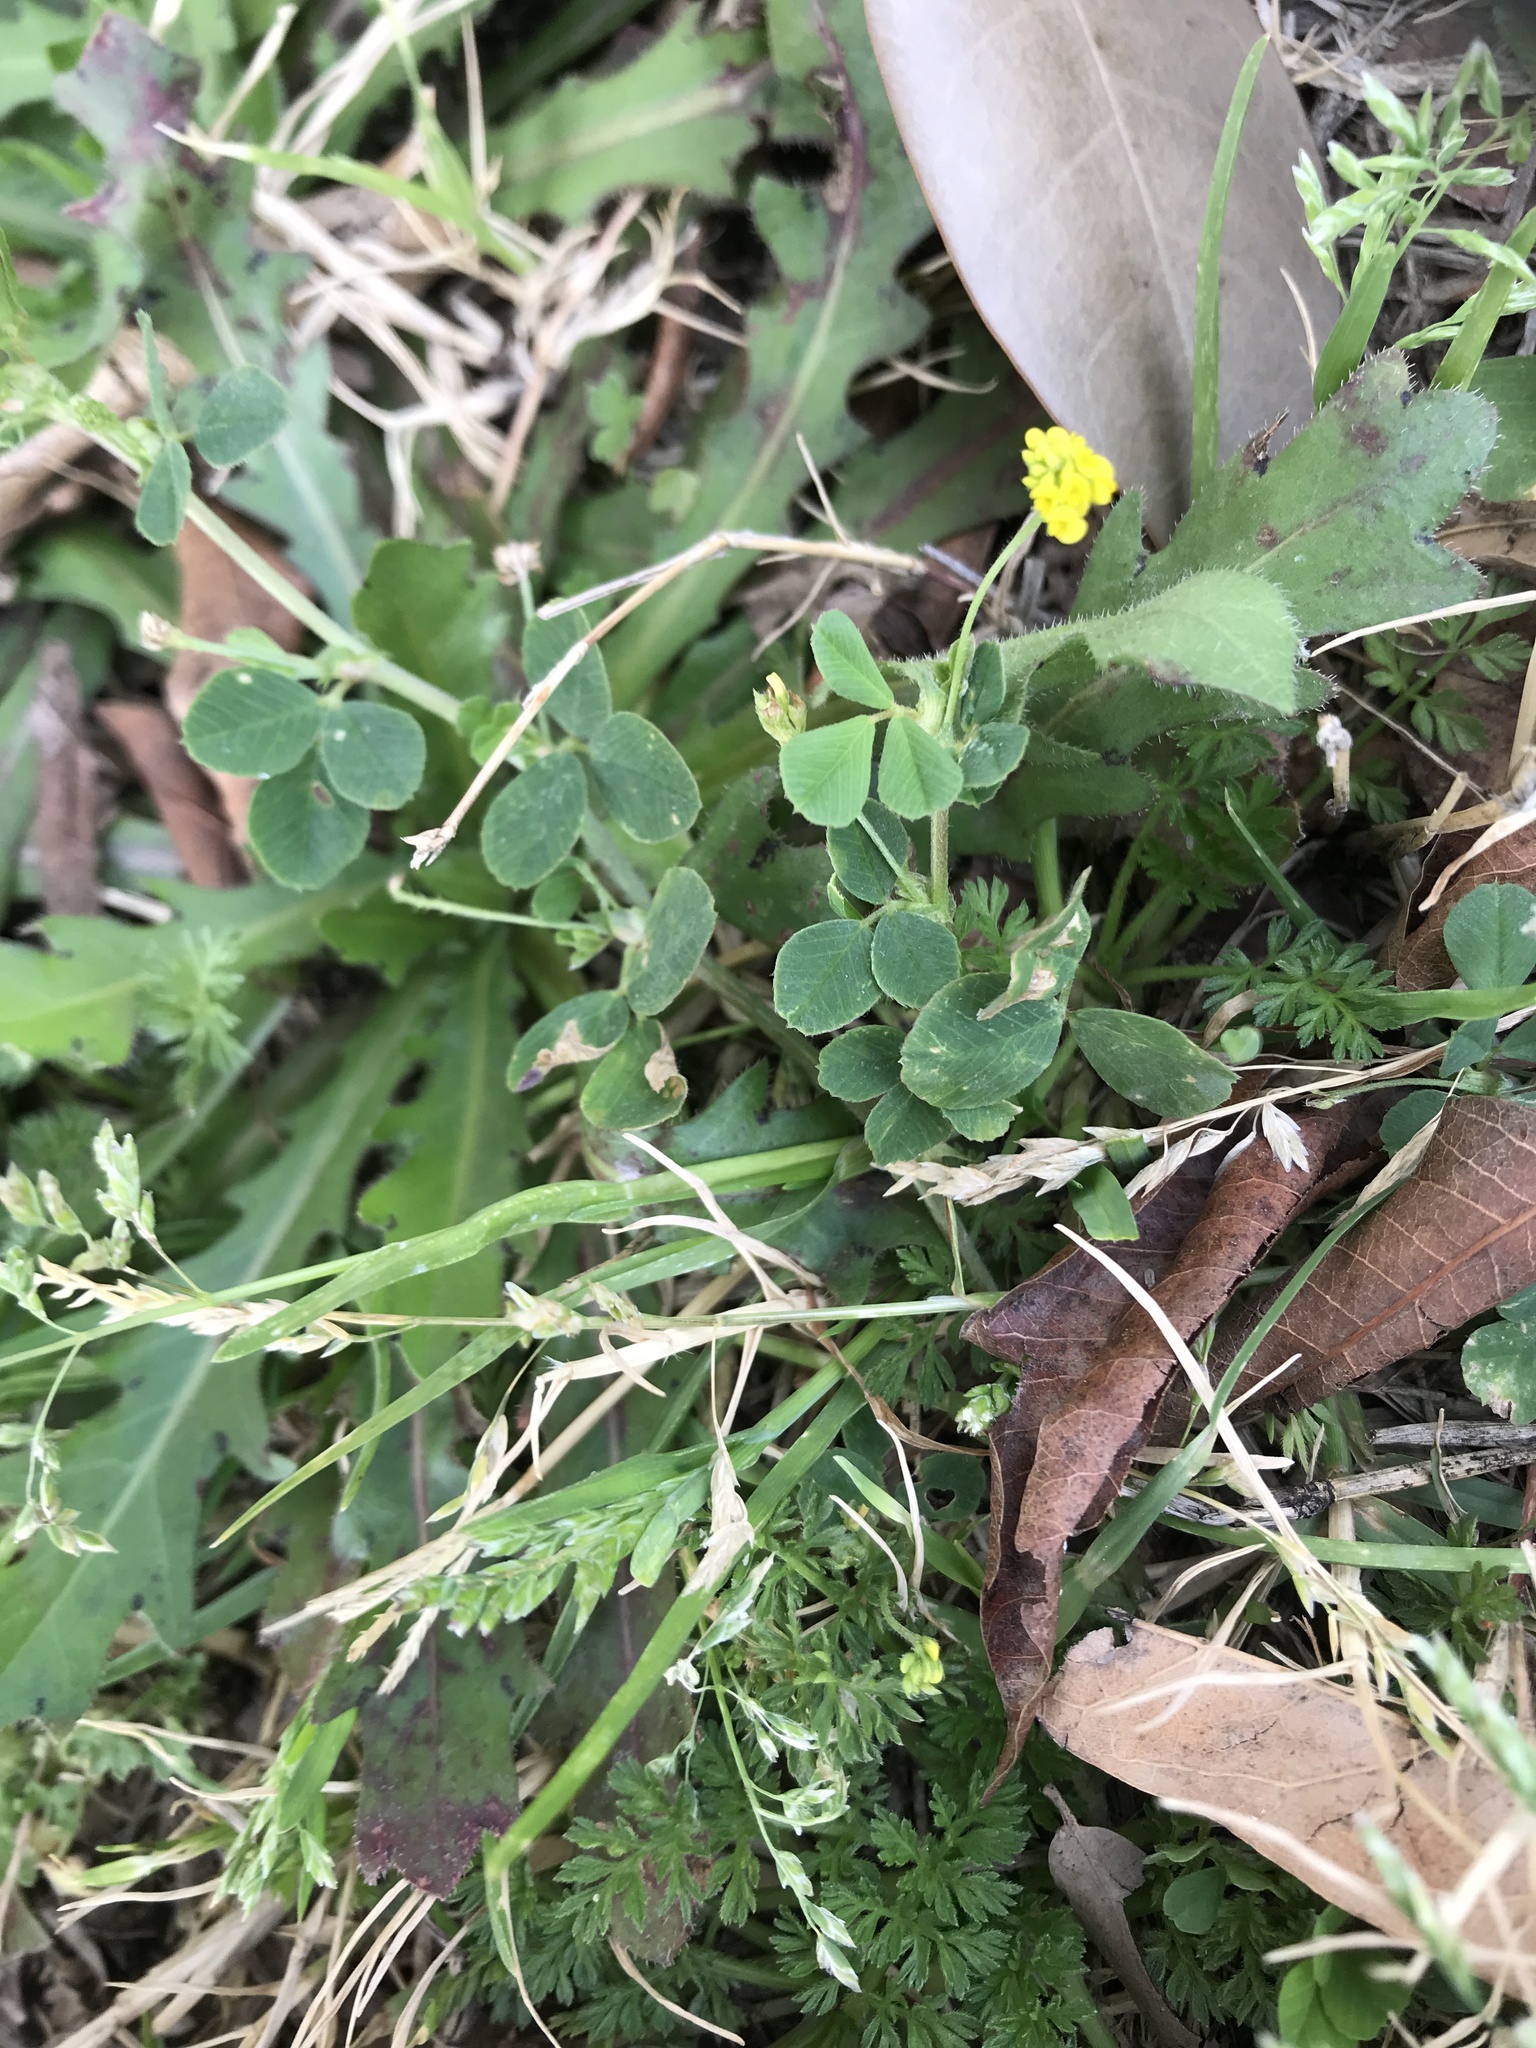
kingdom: Plantae
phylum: Tracheophyta
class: Magnoliopsida
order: Fabales
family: Fabaceae
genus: Medicago
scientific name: Medicago lupulina
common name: Black medick
